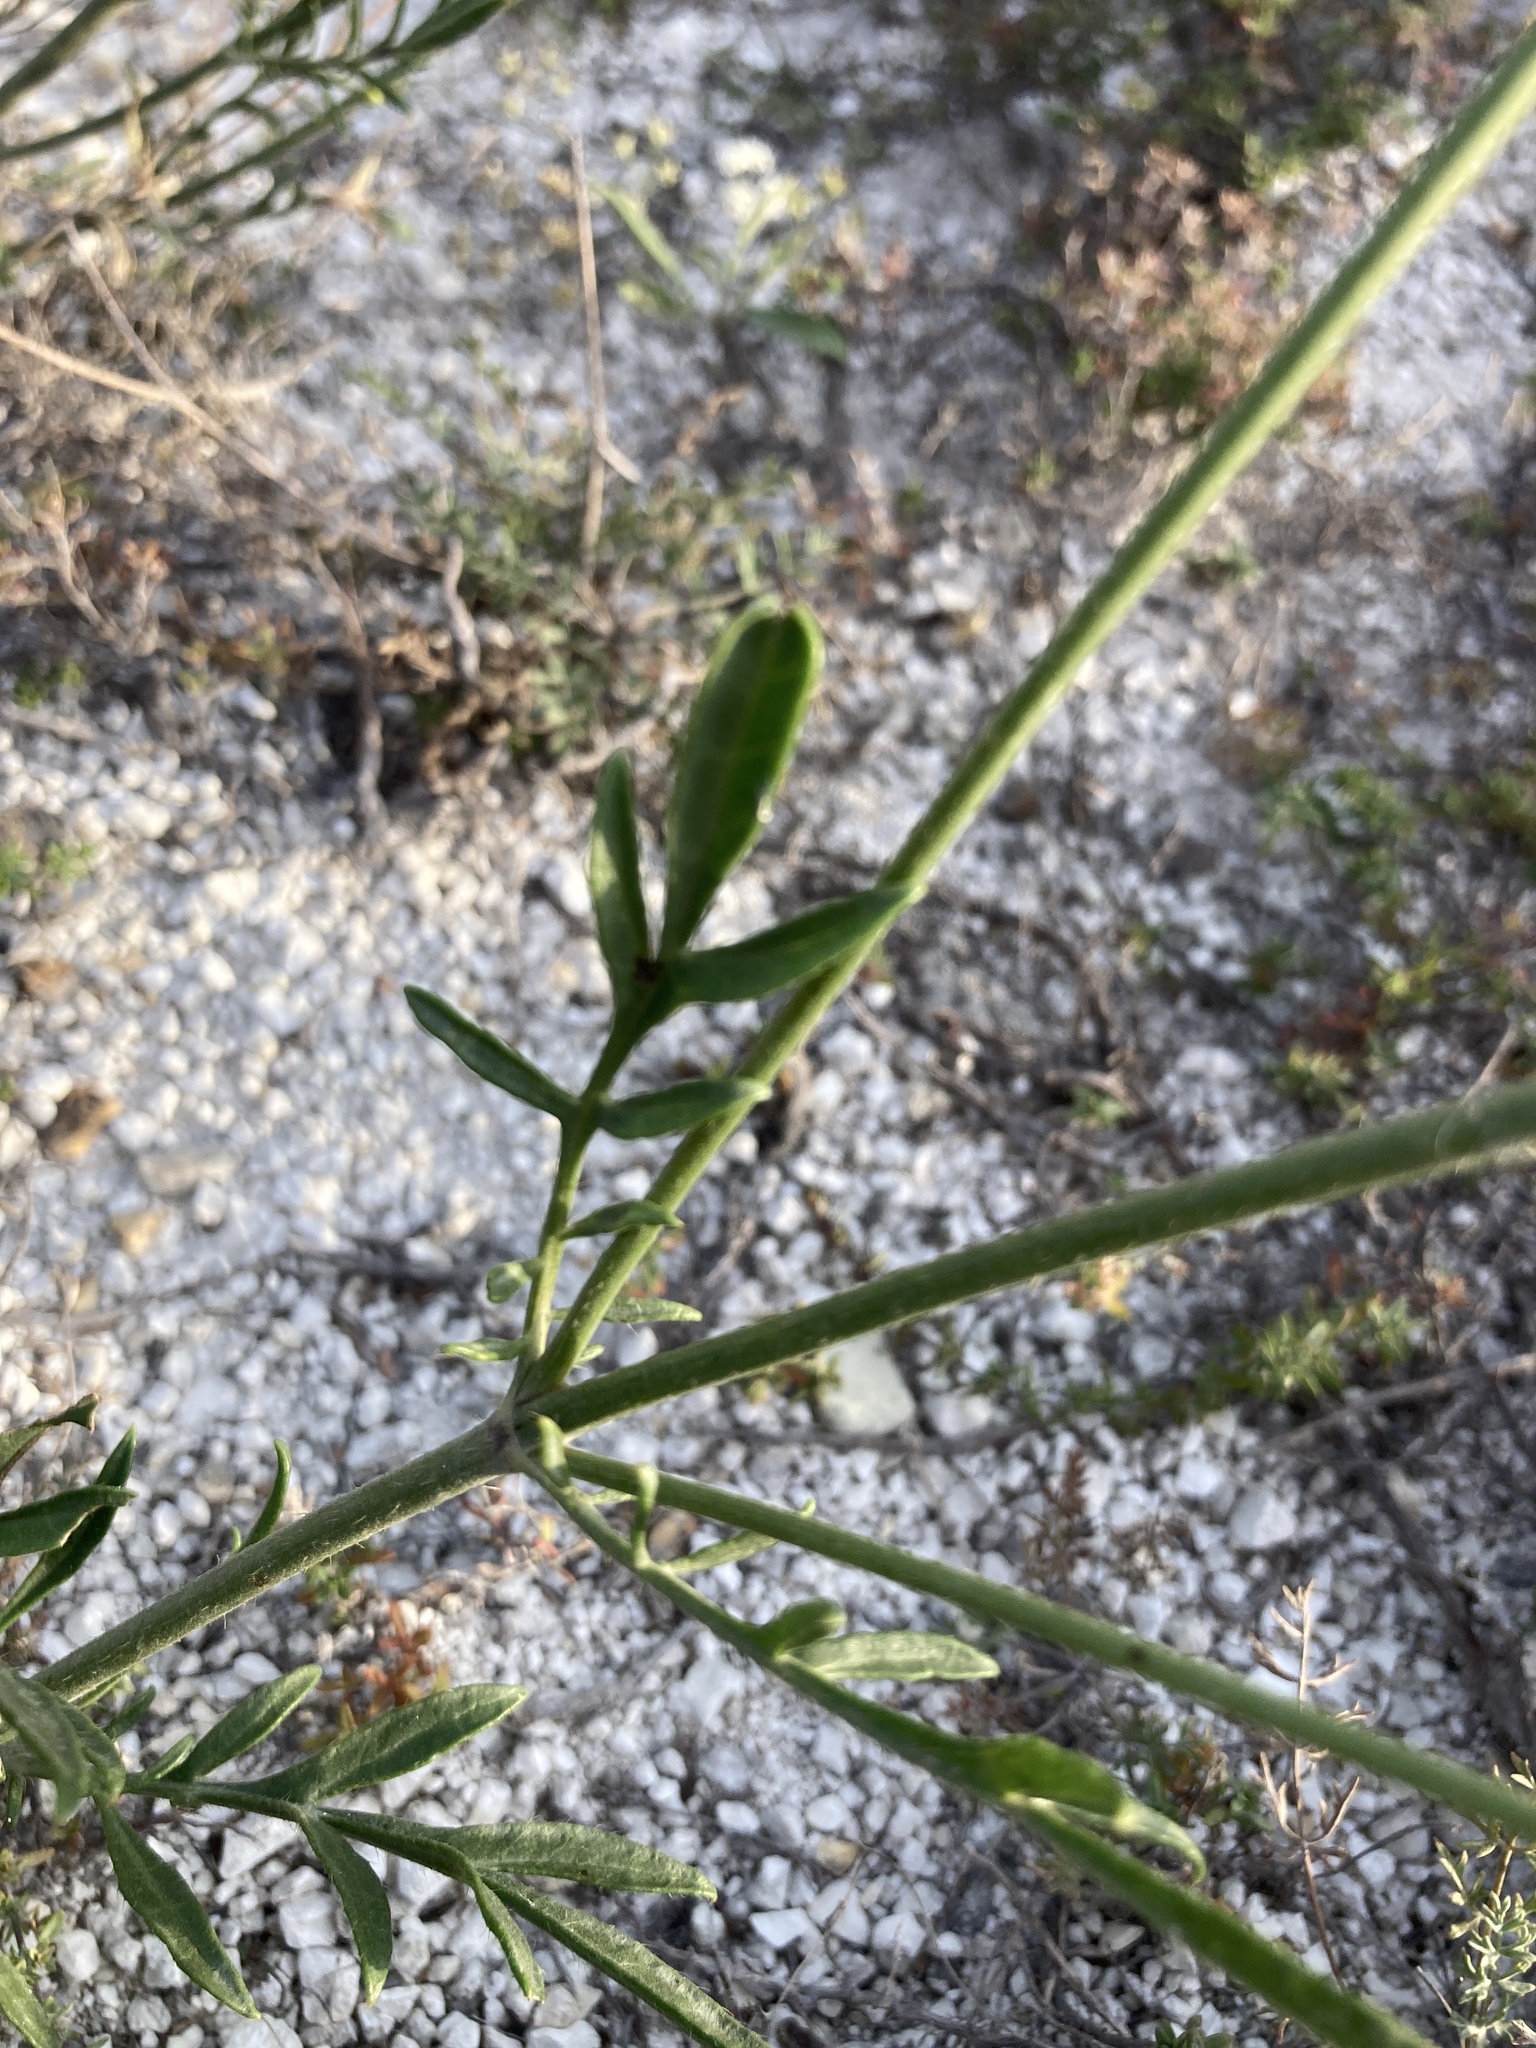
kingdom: Plantae
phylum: Tracheophyta
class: Magnoliopsida
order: Dipsacales
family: Caprifoliaceae
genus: Cephalaria
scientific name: Cephalaria uralensis
